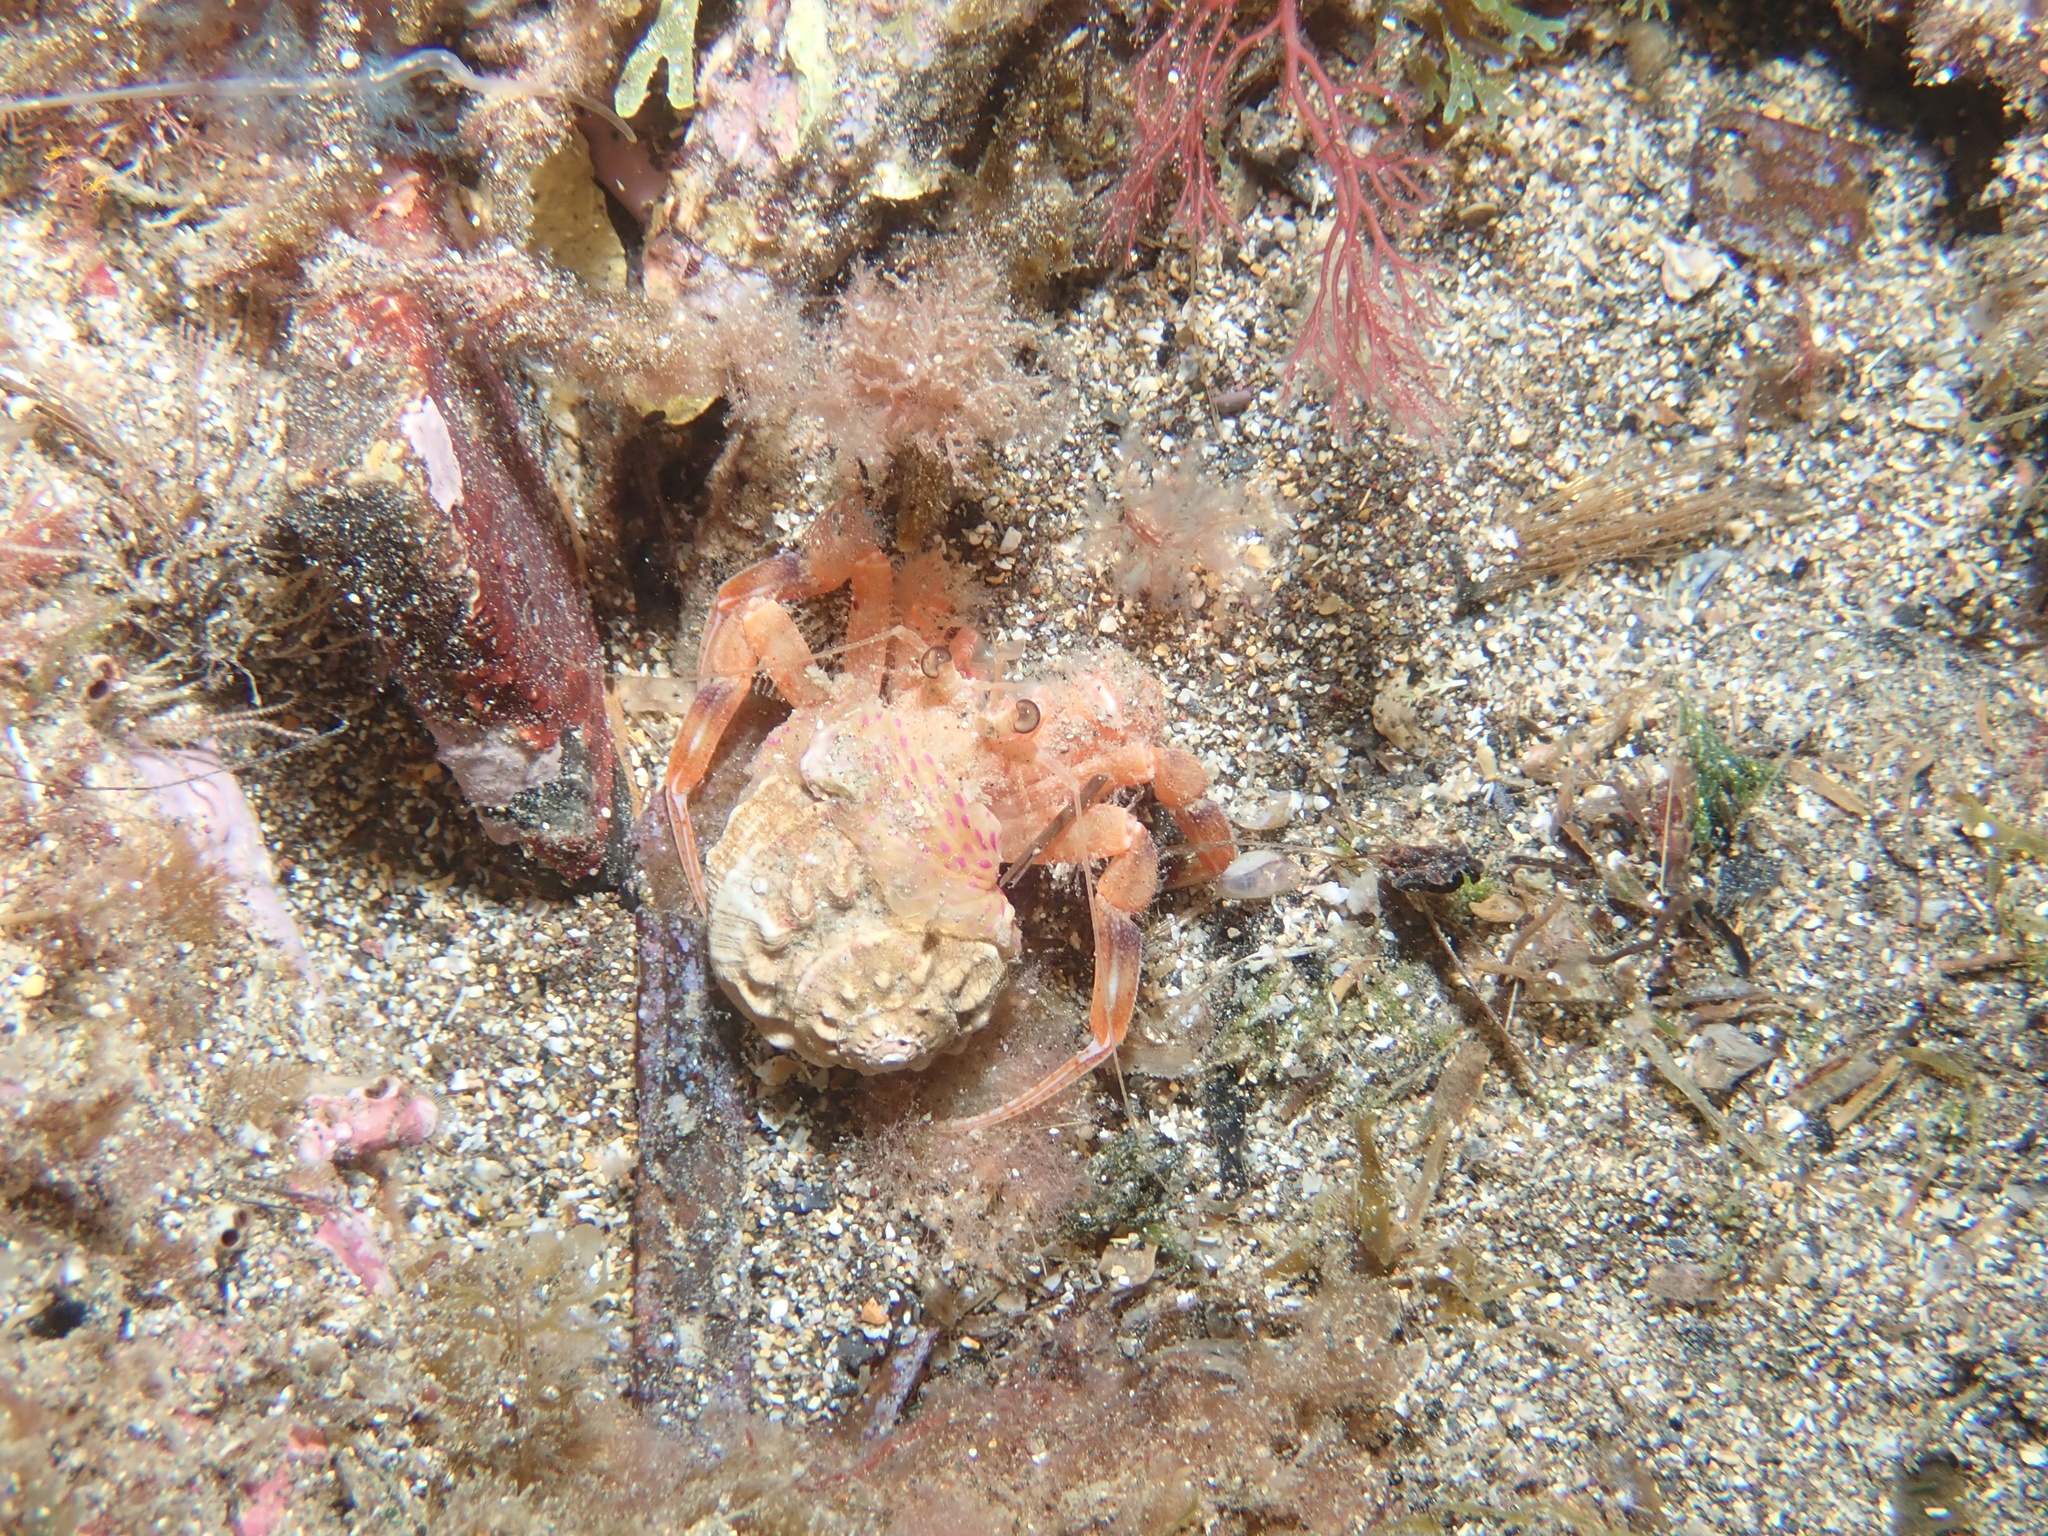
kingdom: Animalia
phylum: Arthropoda
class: Malacostraca
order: Decapoda
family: Paguridae
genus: Pagurus
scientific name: Pagurus prideaux
